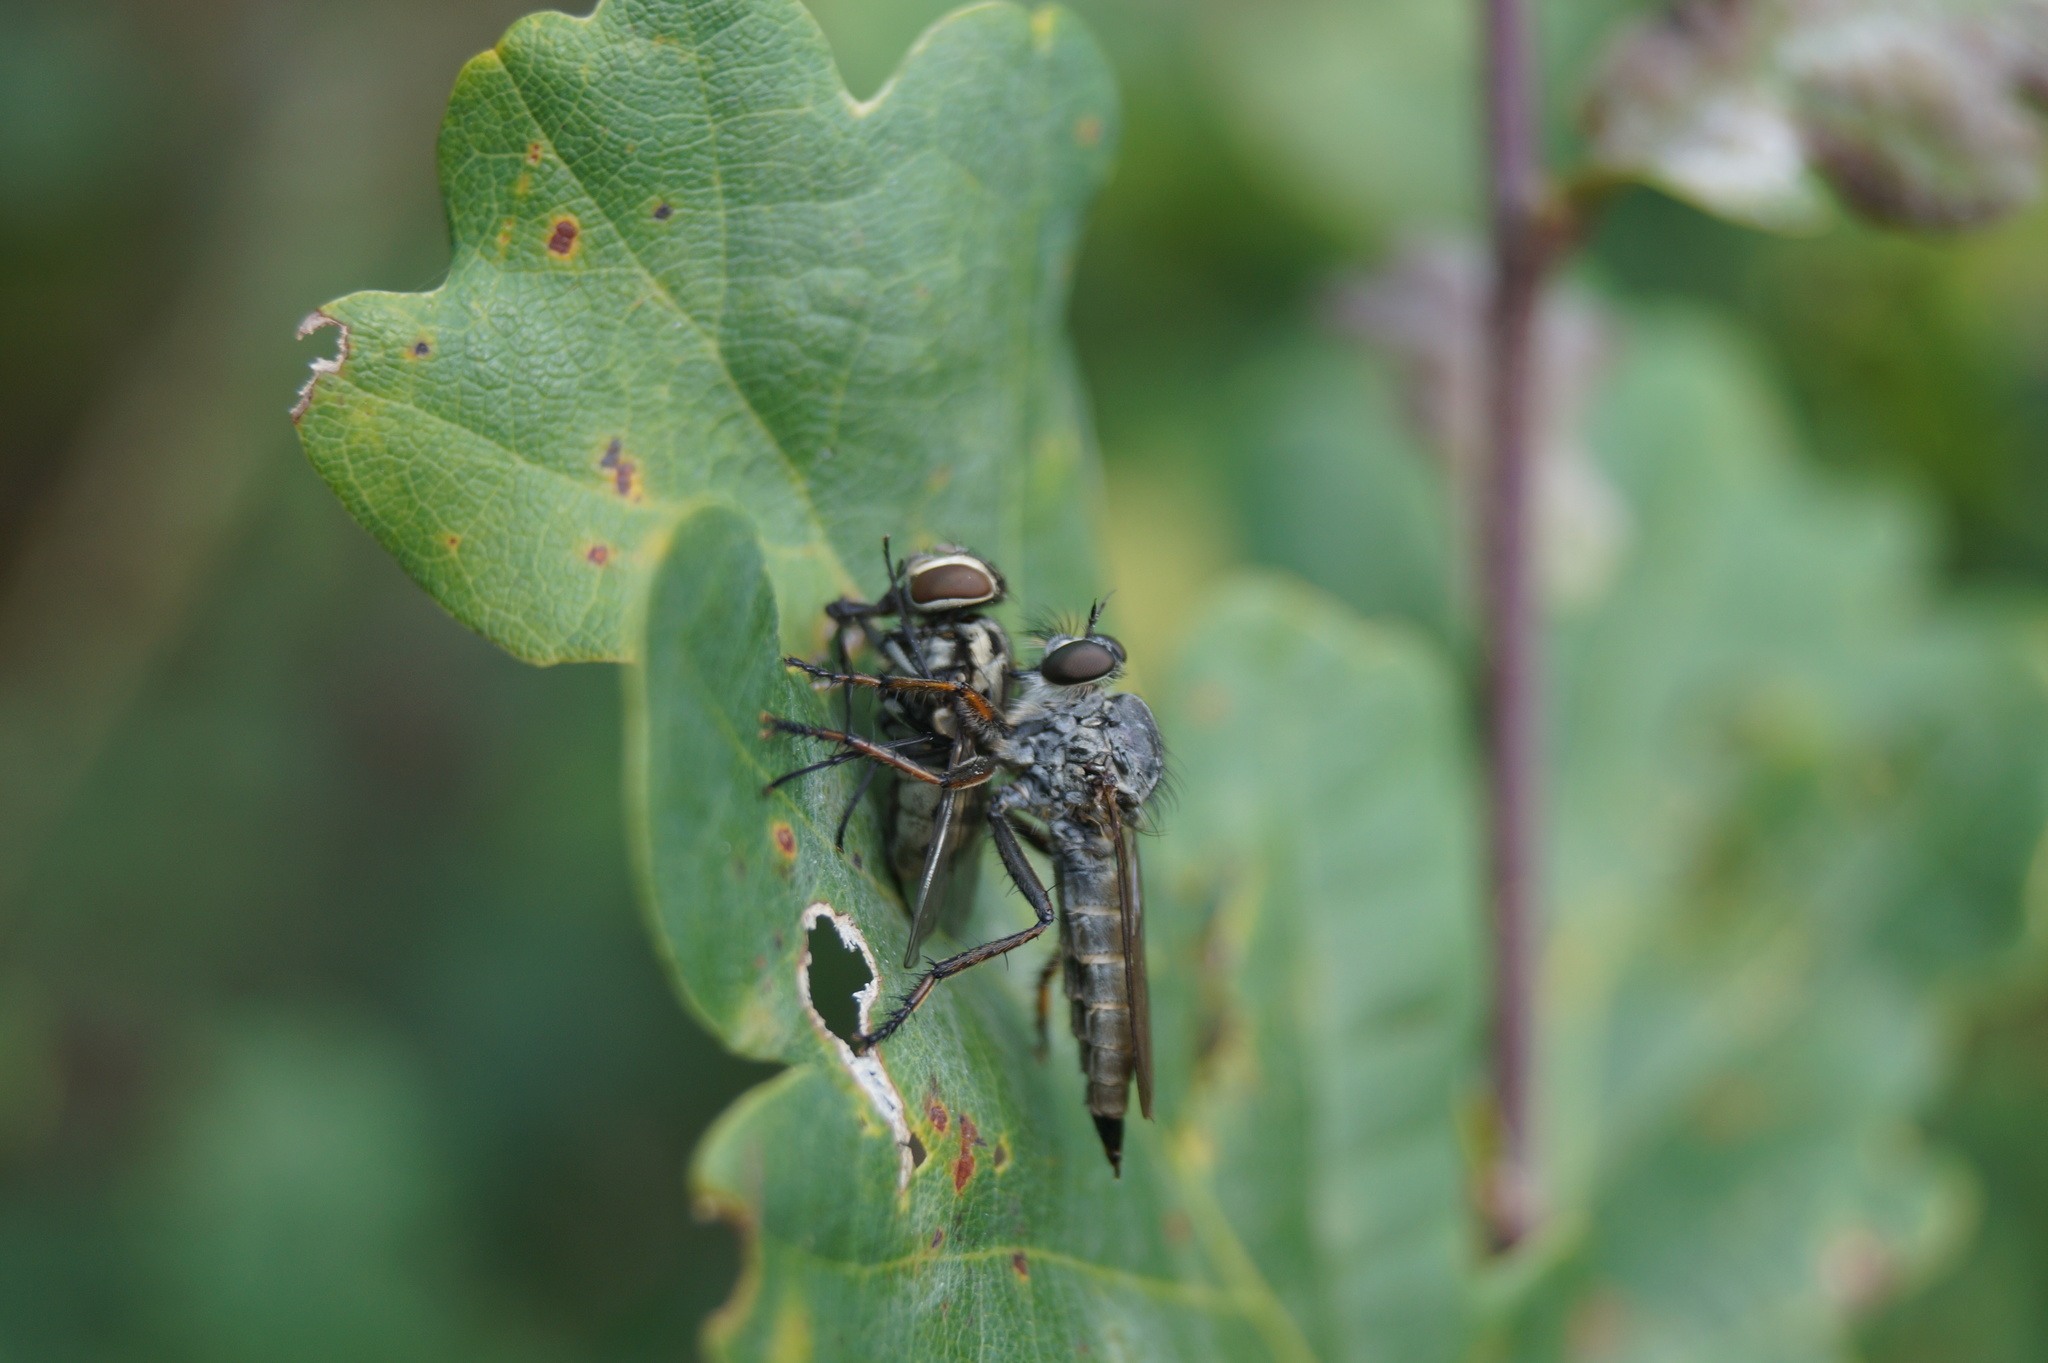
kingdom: Animalia
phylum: Arthropoda
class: Insecta
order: Diptera
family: Asilidae
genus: Machimus
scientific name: Machimus atricapillus
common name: Kite-tailed robberfly
